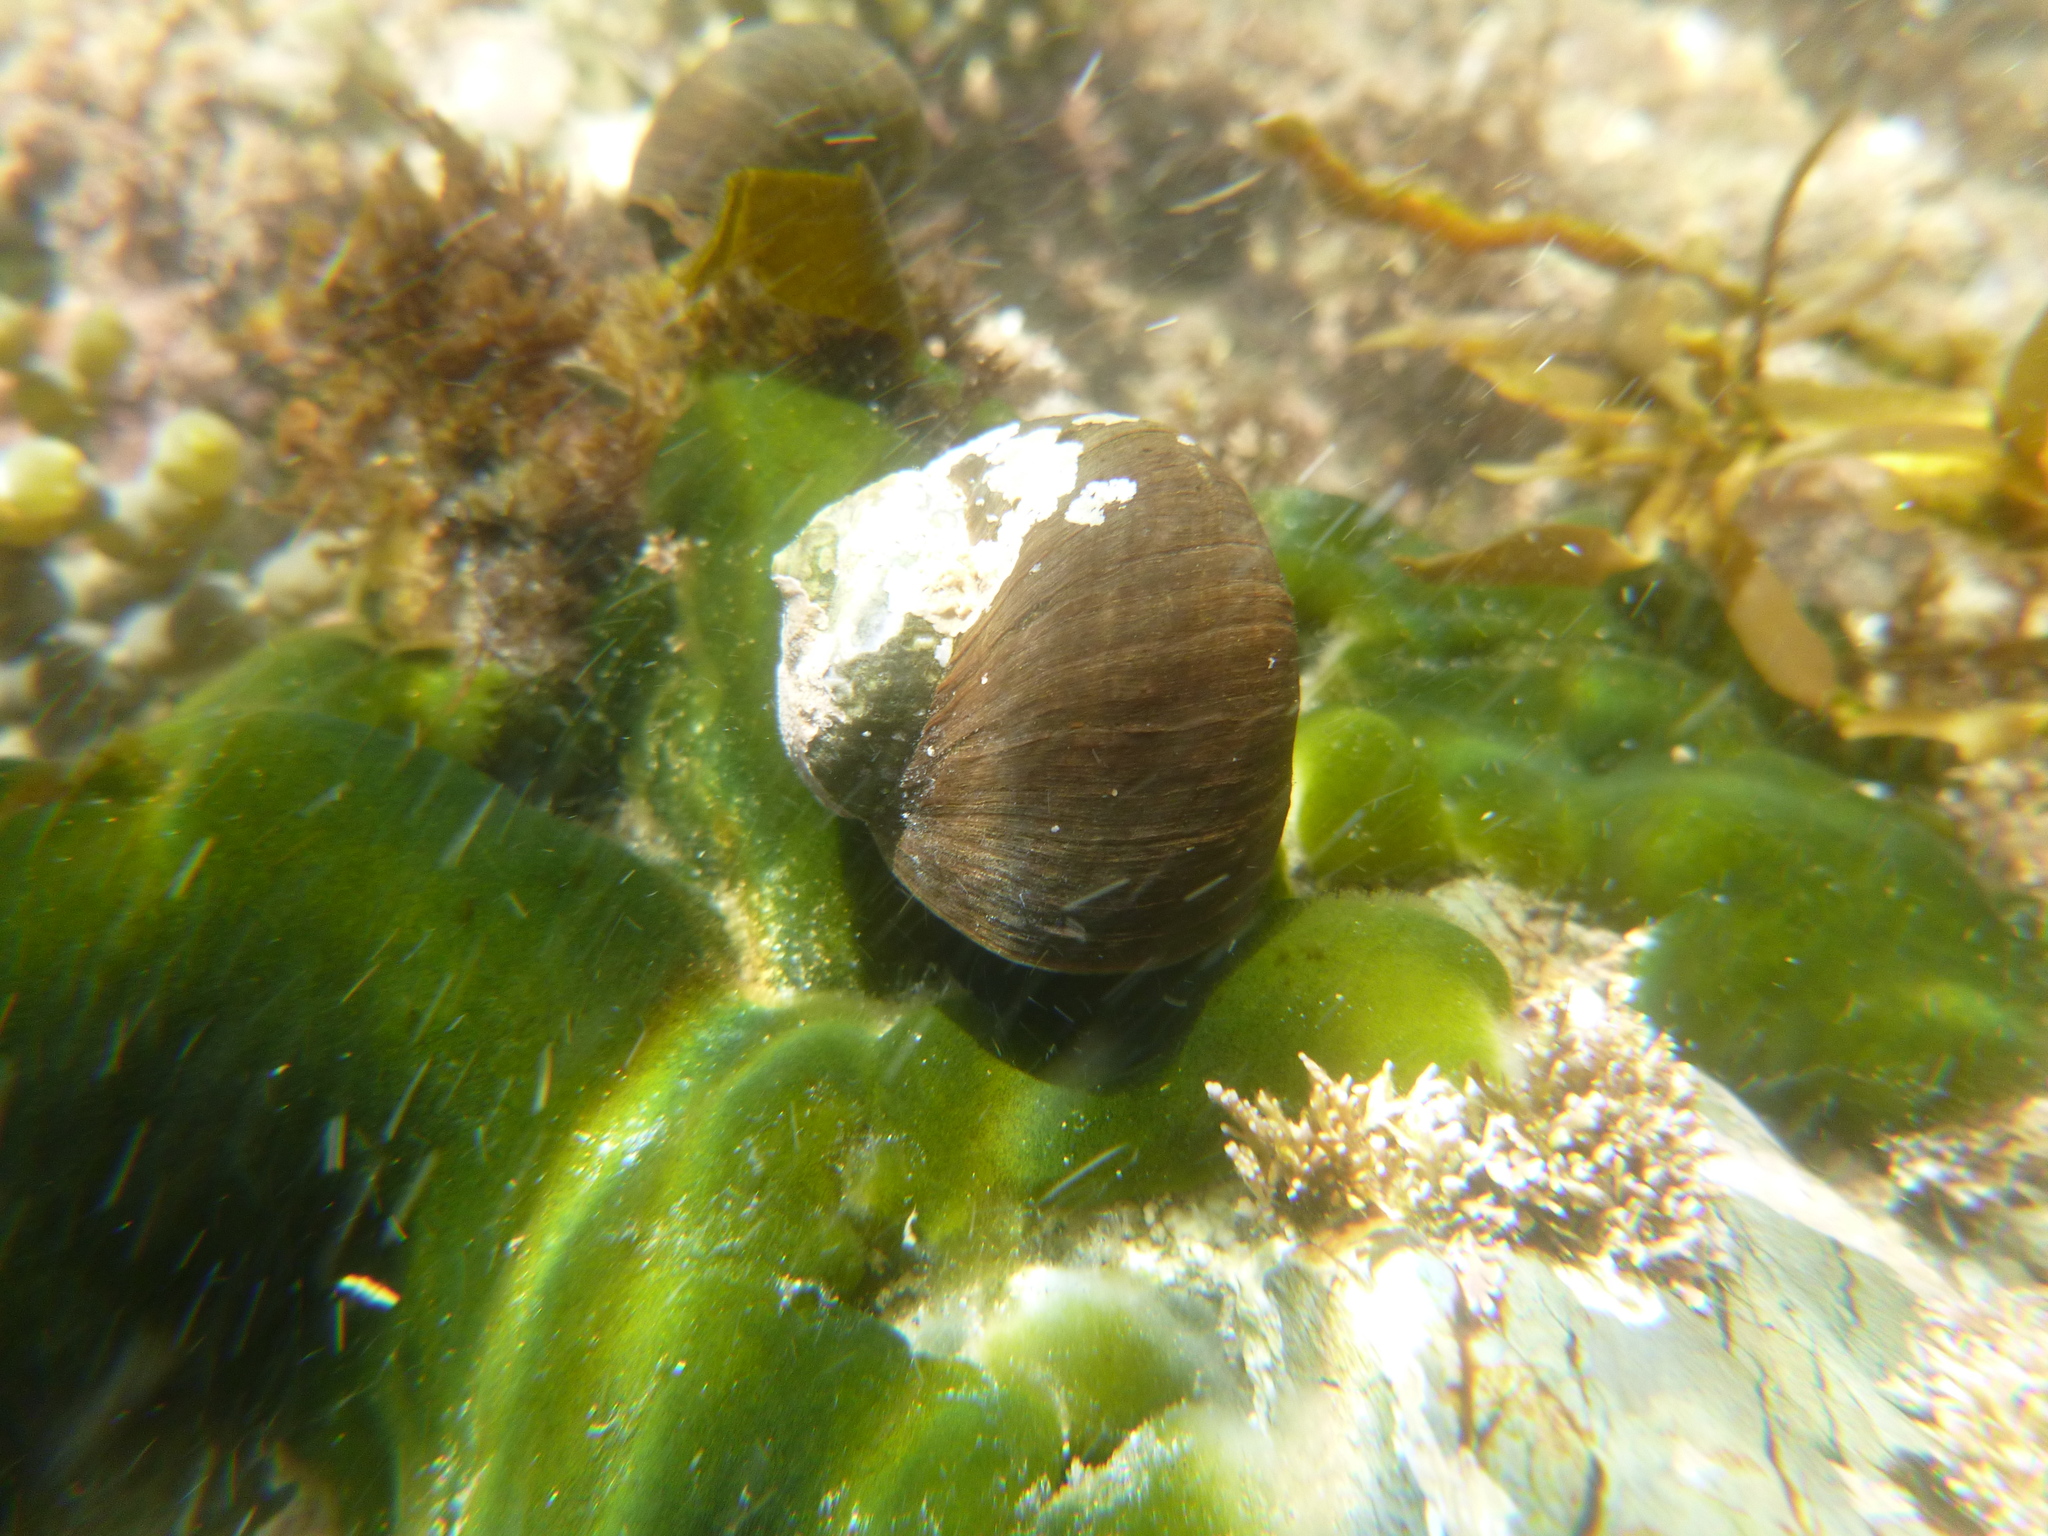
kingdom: Animalia
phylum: Mollusca
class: Gastropoda
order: Trochida
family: Turbinidae
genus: Lunella
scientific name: Lunella smaragda
